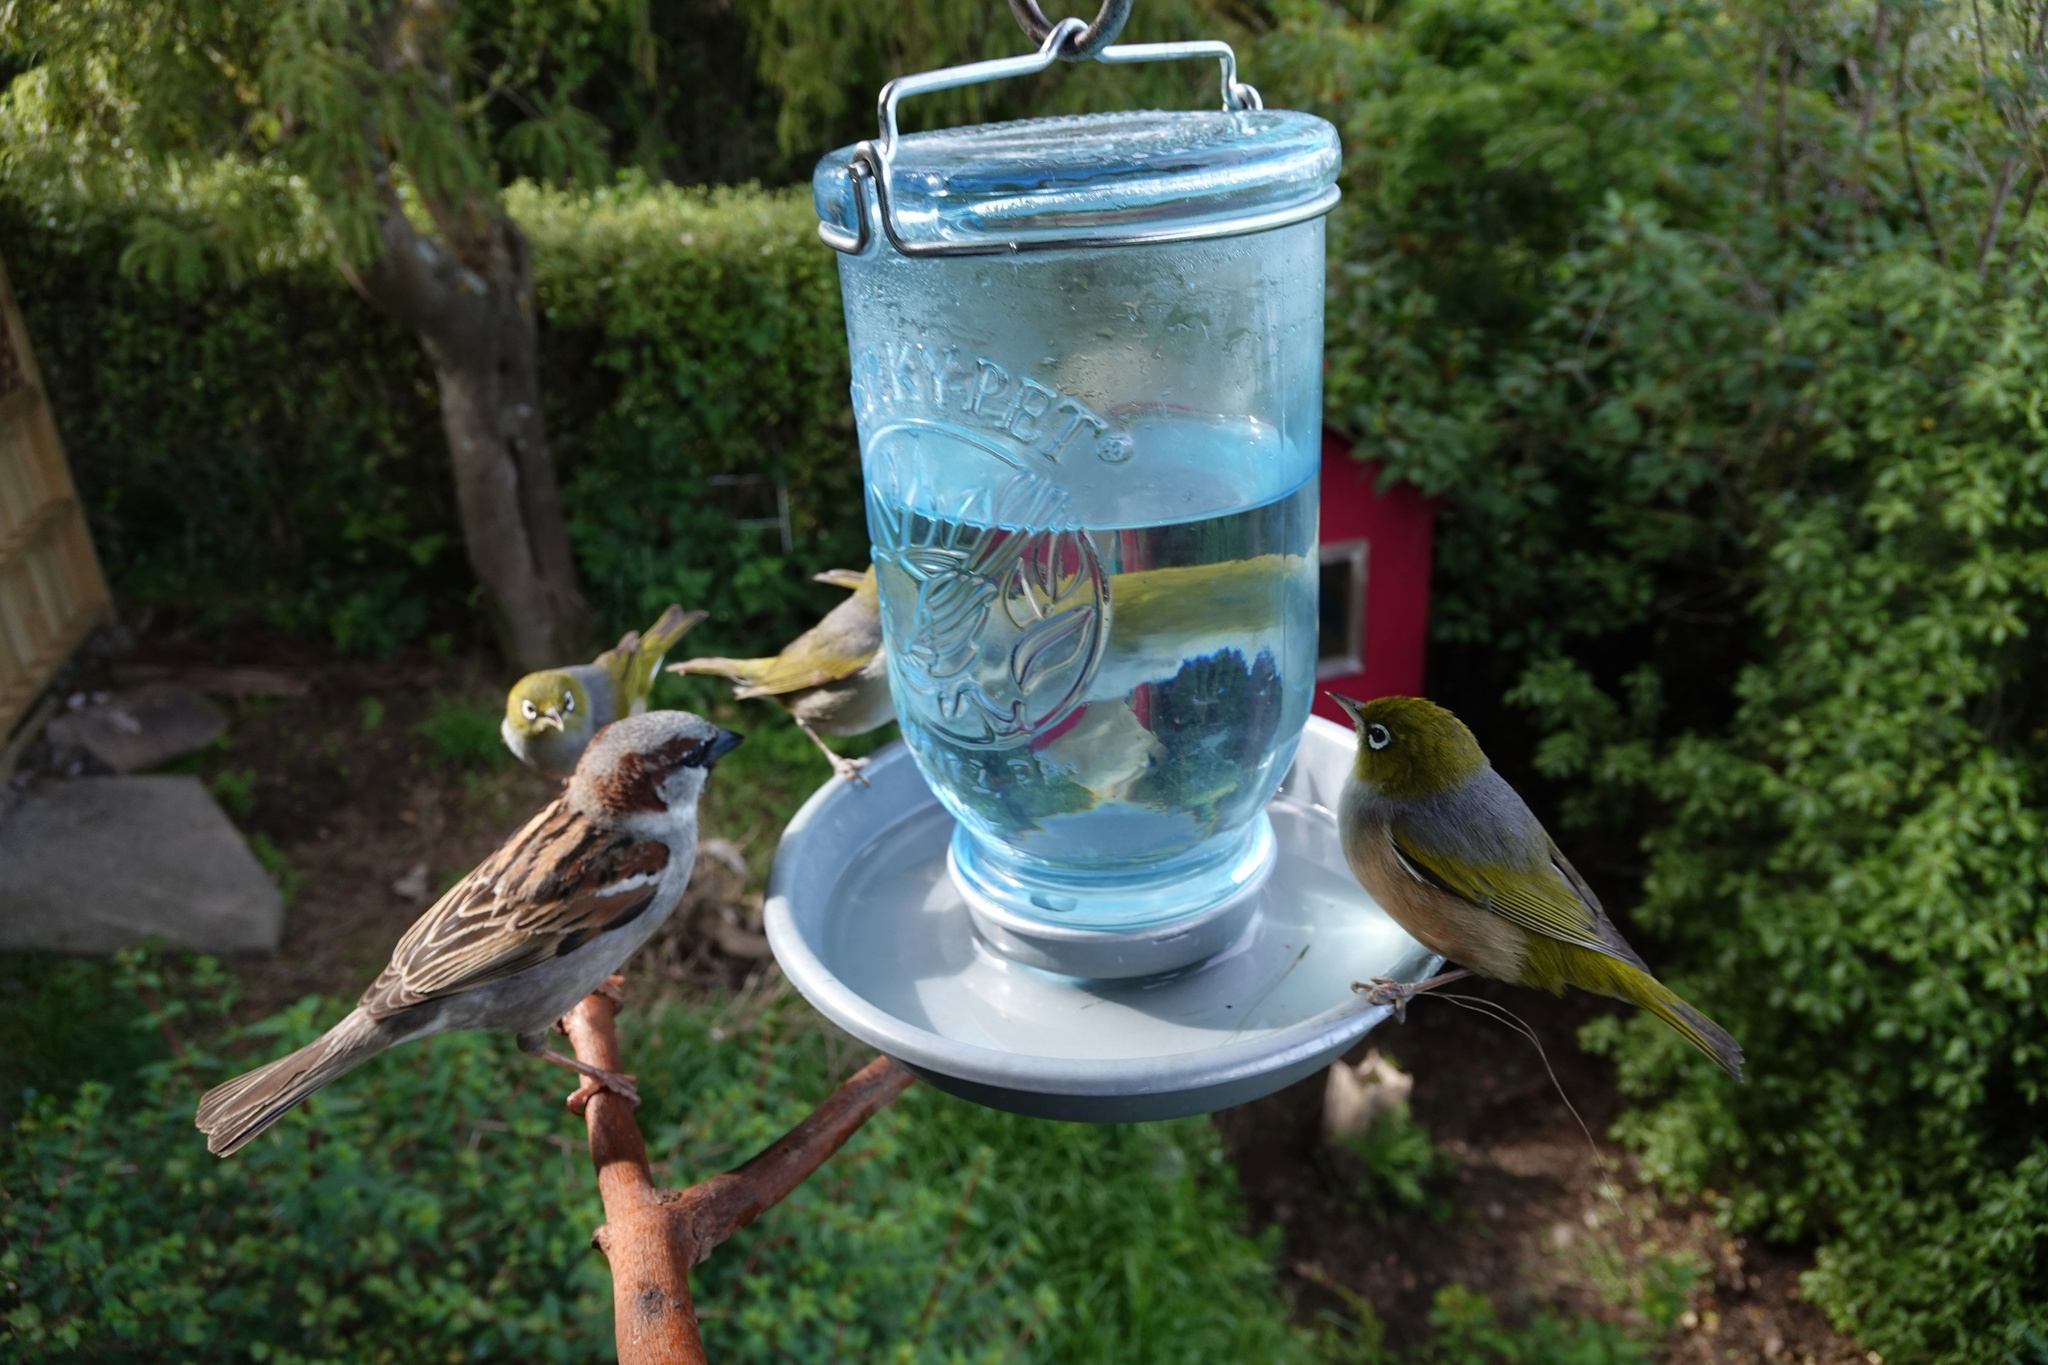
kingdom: Animalia
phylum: Chordata
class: Aves
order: Passeriformes
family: Passeridae
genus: Passer
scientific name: Passer domesticus
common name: House sparrow
